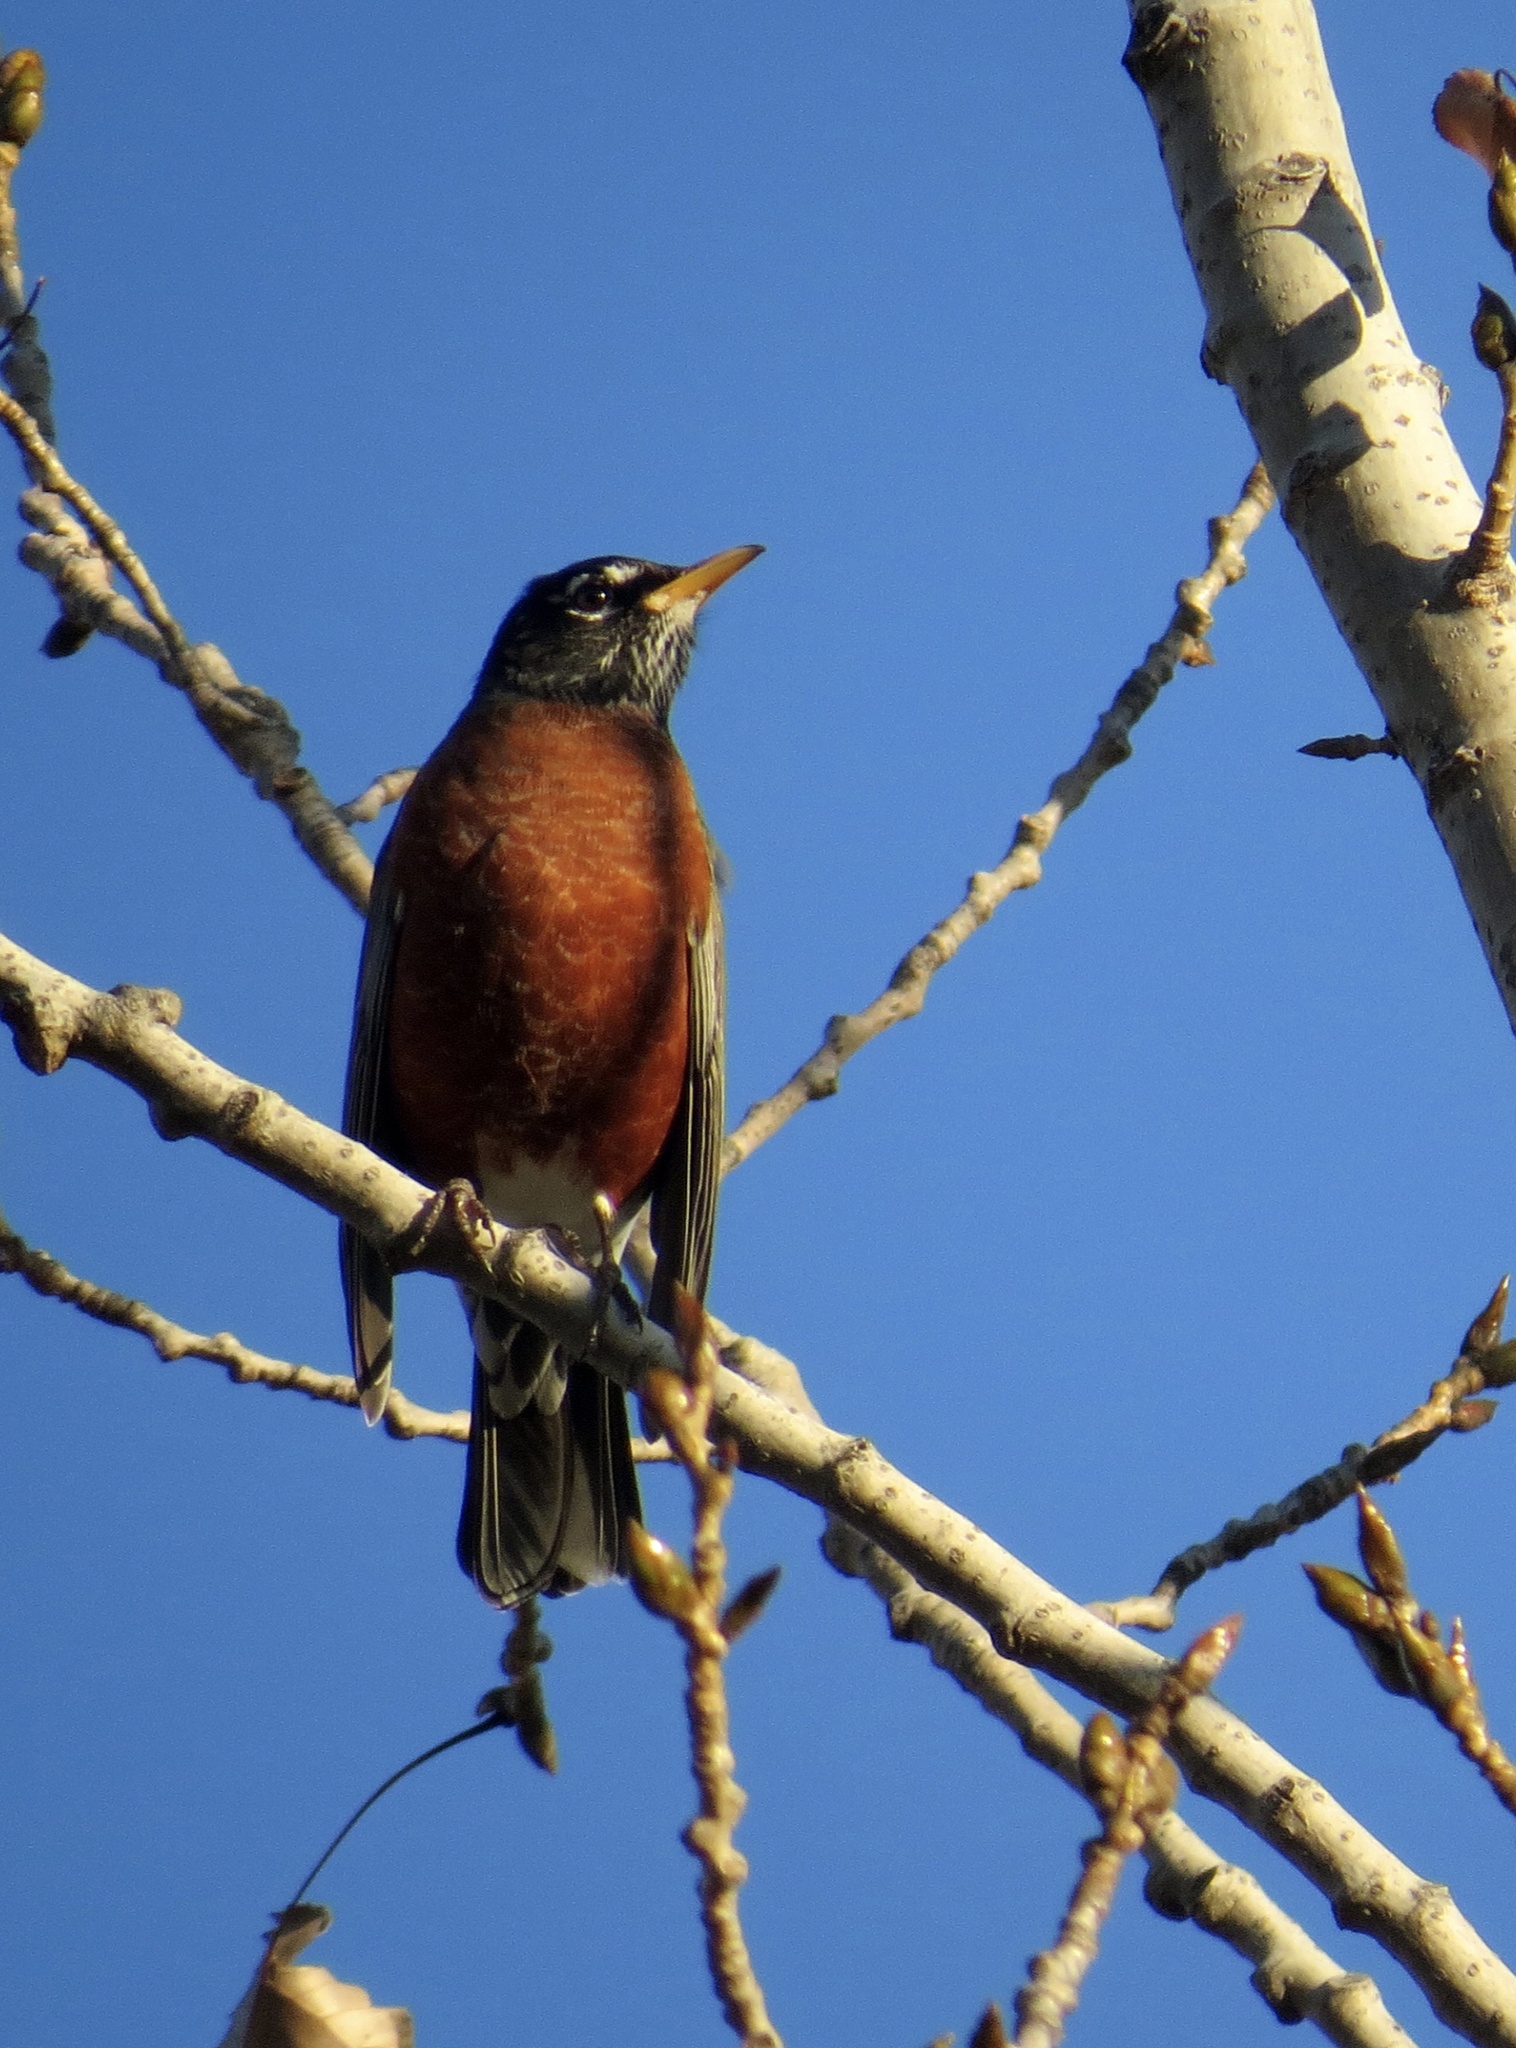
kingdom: Animalia
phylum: Chordata
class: Aves
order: Passeriformes
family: Turdidae
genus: Turdus
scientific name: Turdus migratorius
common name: American robin
